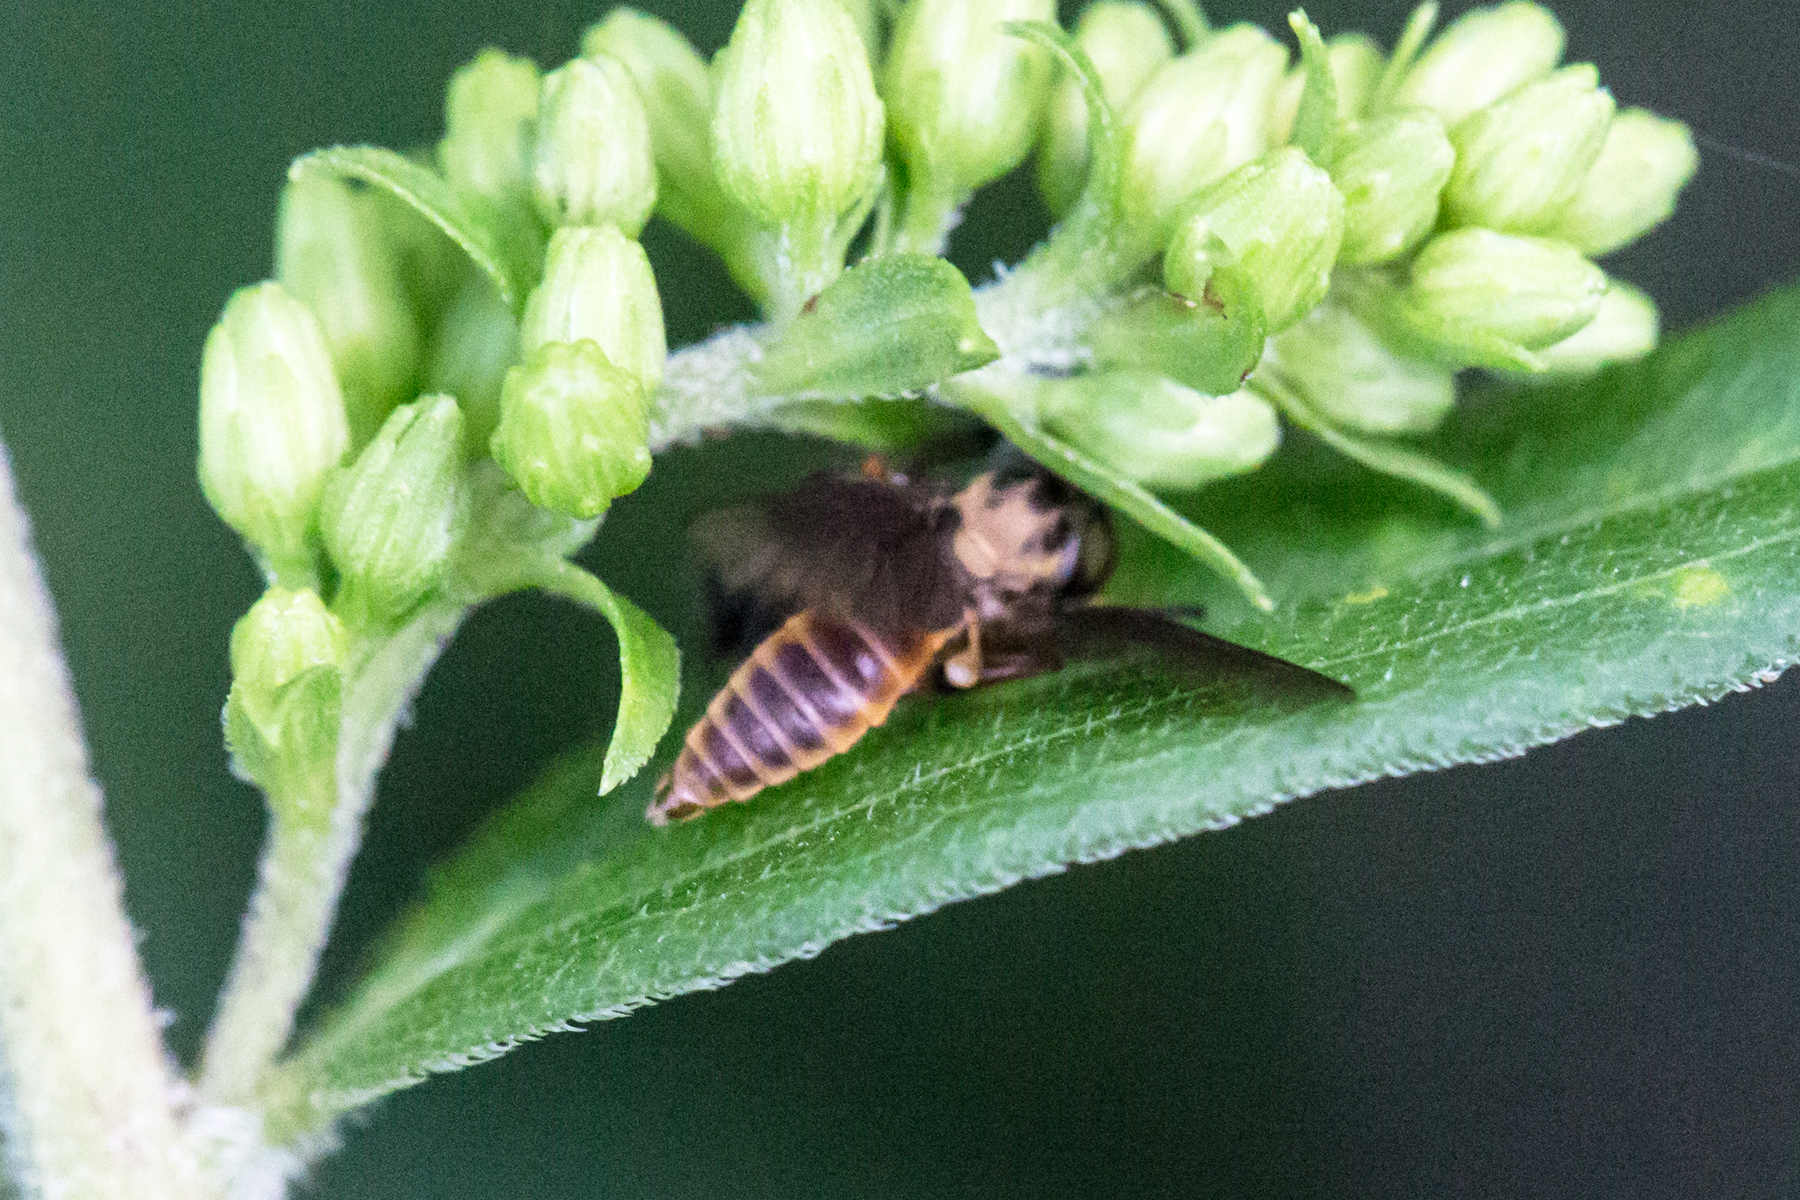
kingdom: Animalia
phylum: Arthropoda
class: Arachnida
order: Araneae
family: Salticidae
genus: Phidippus
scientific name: Phidippus audax
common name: Bold jumper
